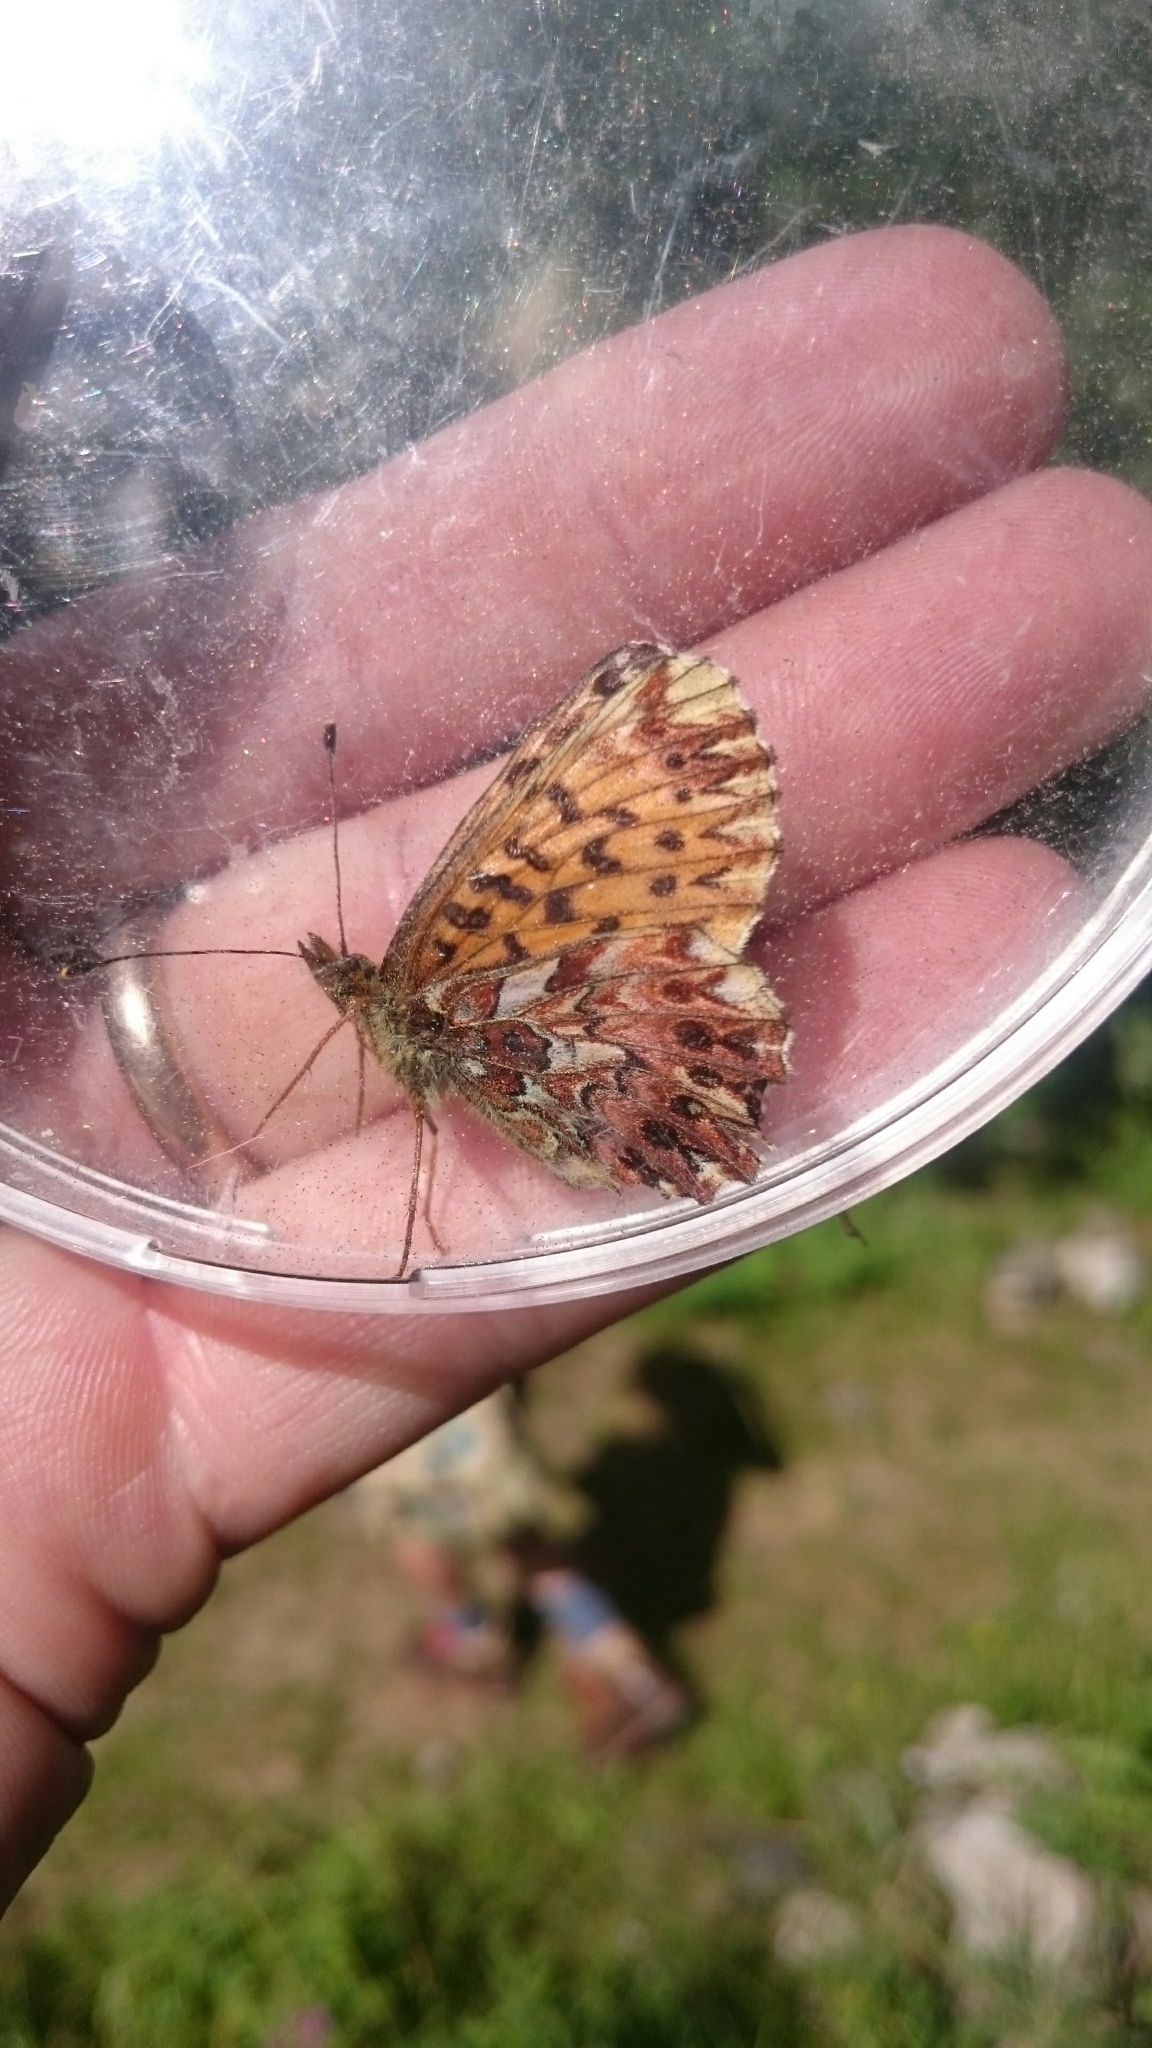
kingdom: Animalia
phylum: Arthropoda
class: Insecta
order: Lepidoptera
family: Nymphalidae
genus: Boloria
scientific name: Boloria titania
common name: Titania's fritillary
